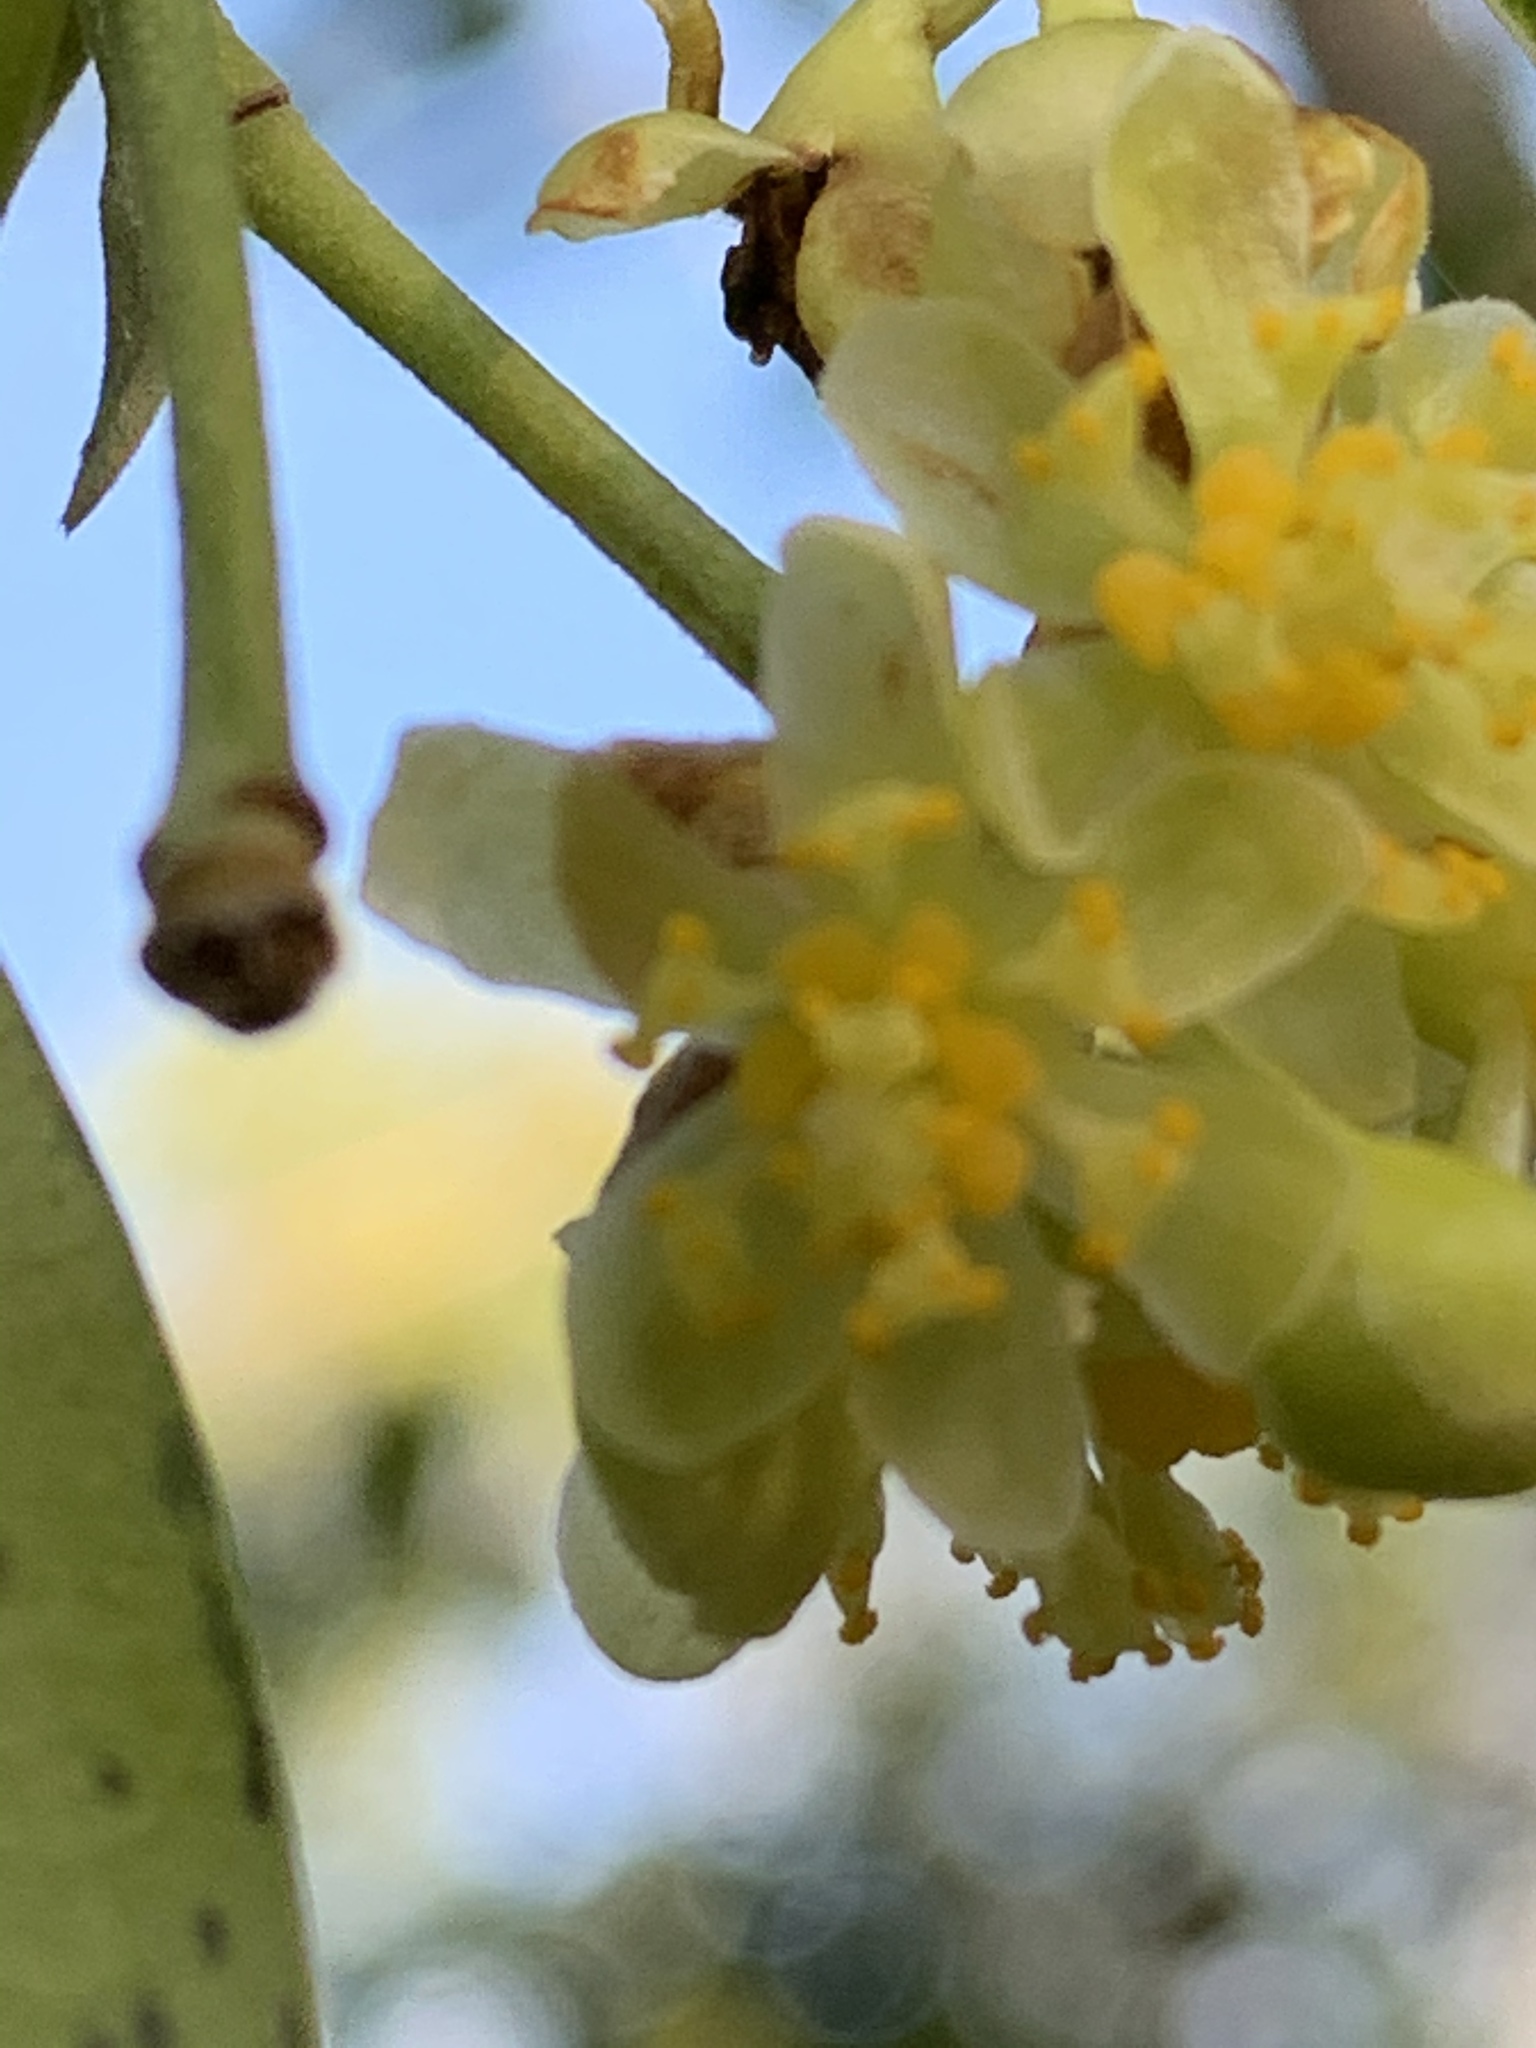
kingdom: Plantae
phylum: Tracheophyta
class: Magnoliopsida
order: Laurales
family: Lauraceae
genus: Umbellularia
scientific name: Umbellularia californica
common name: California bay
